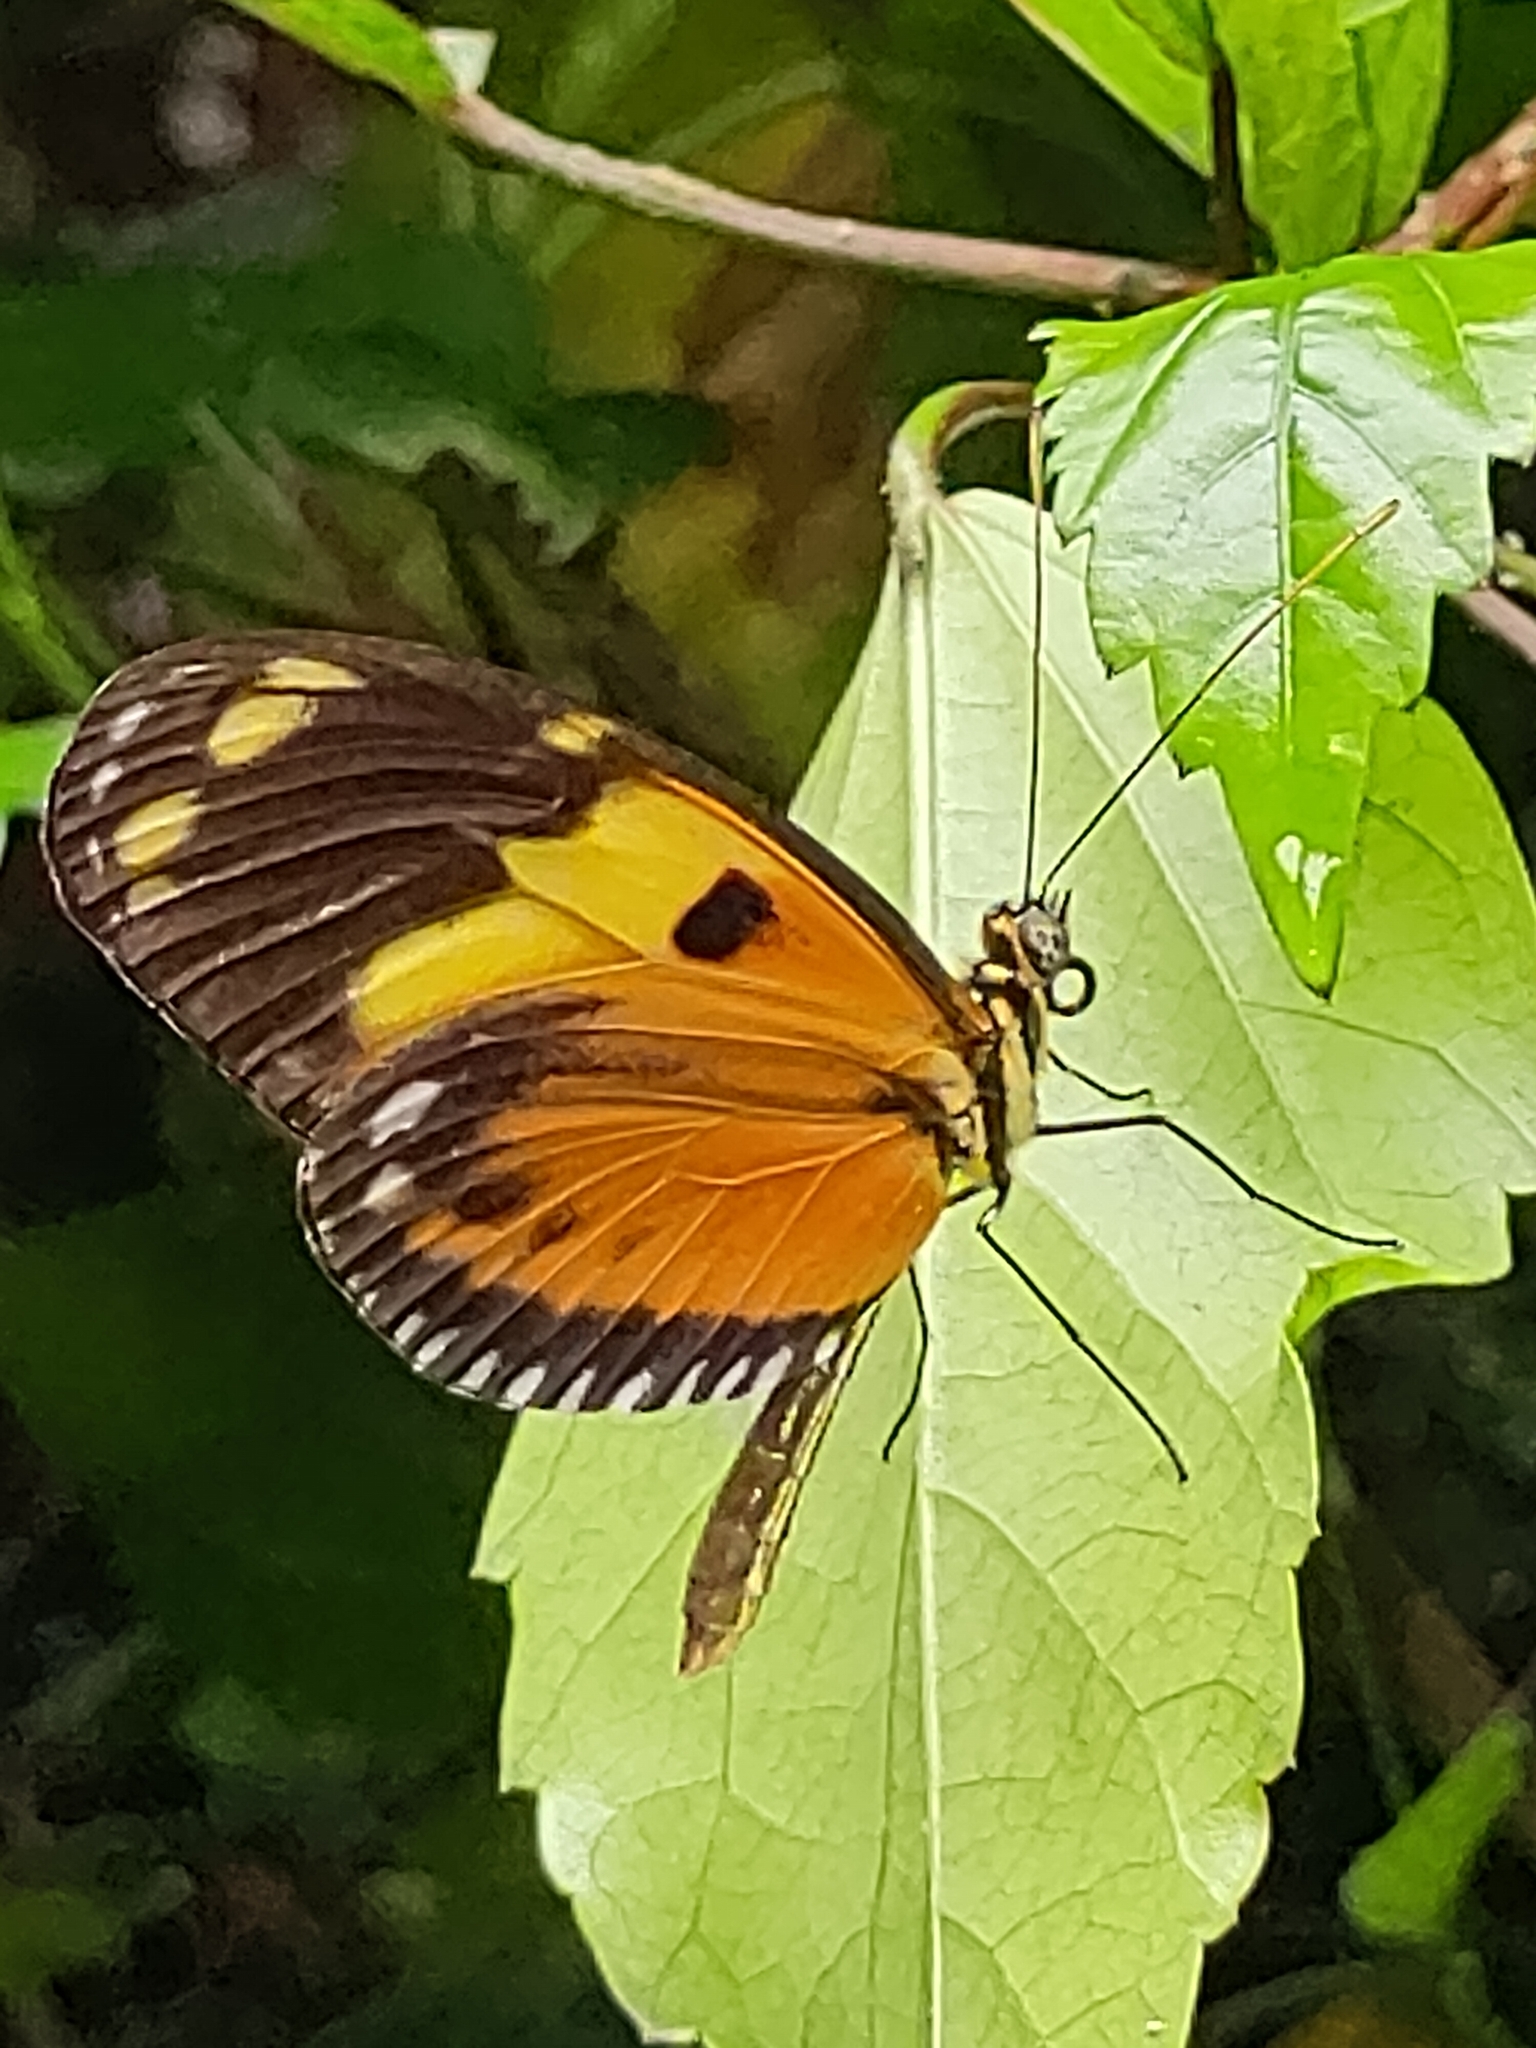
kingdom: Animalia
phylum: Arthropoda
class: Insecta
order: Lepidoptera
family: Nymphalidae
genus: Heliconius
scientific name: Heliconius ismenius
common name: Ismenius tiger
